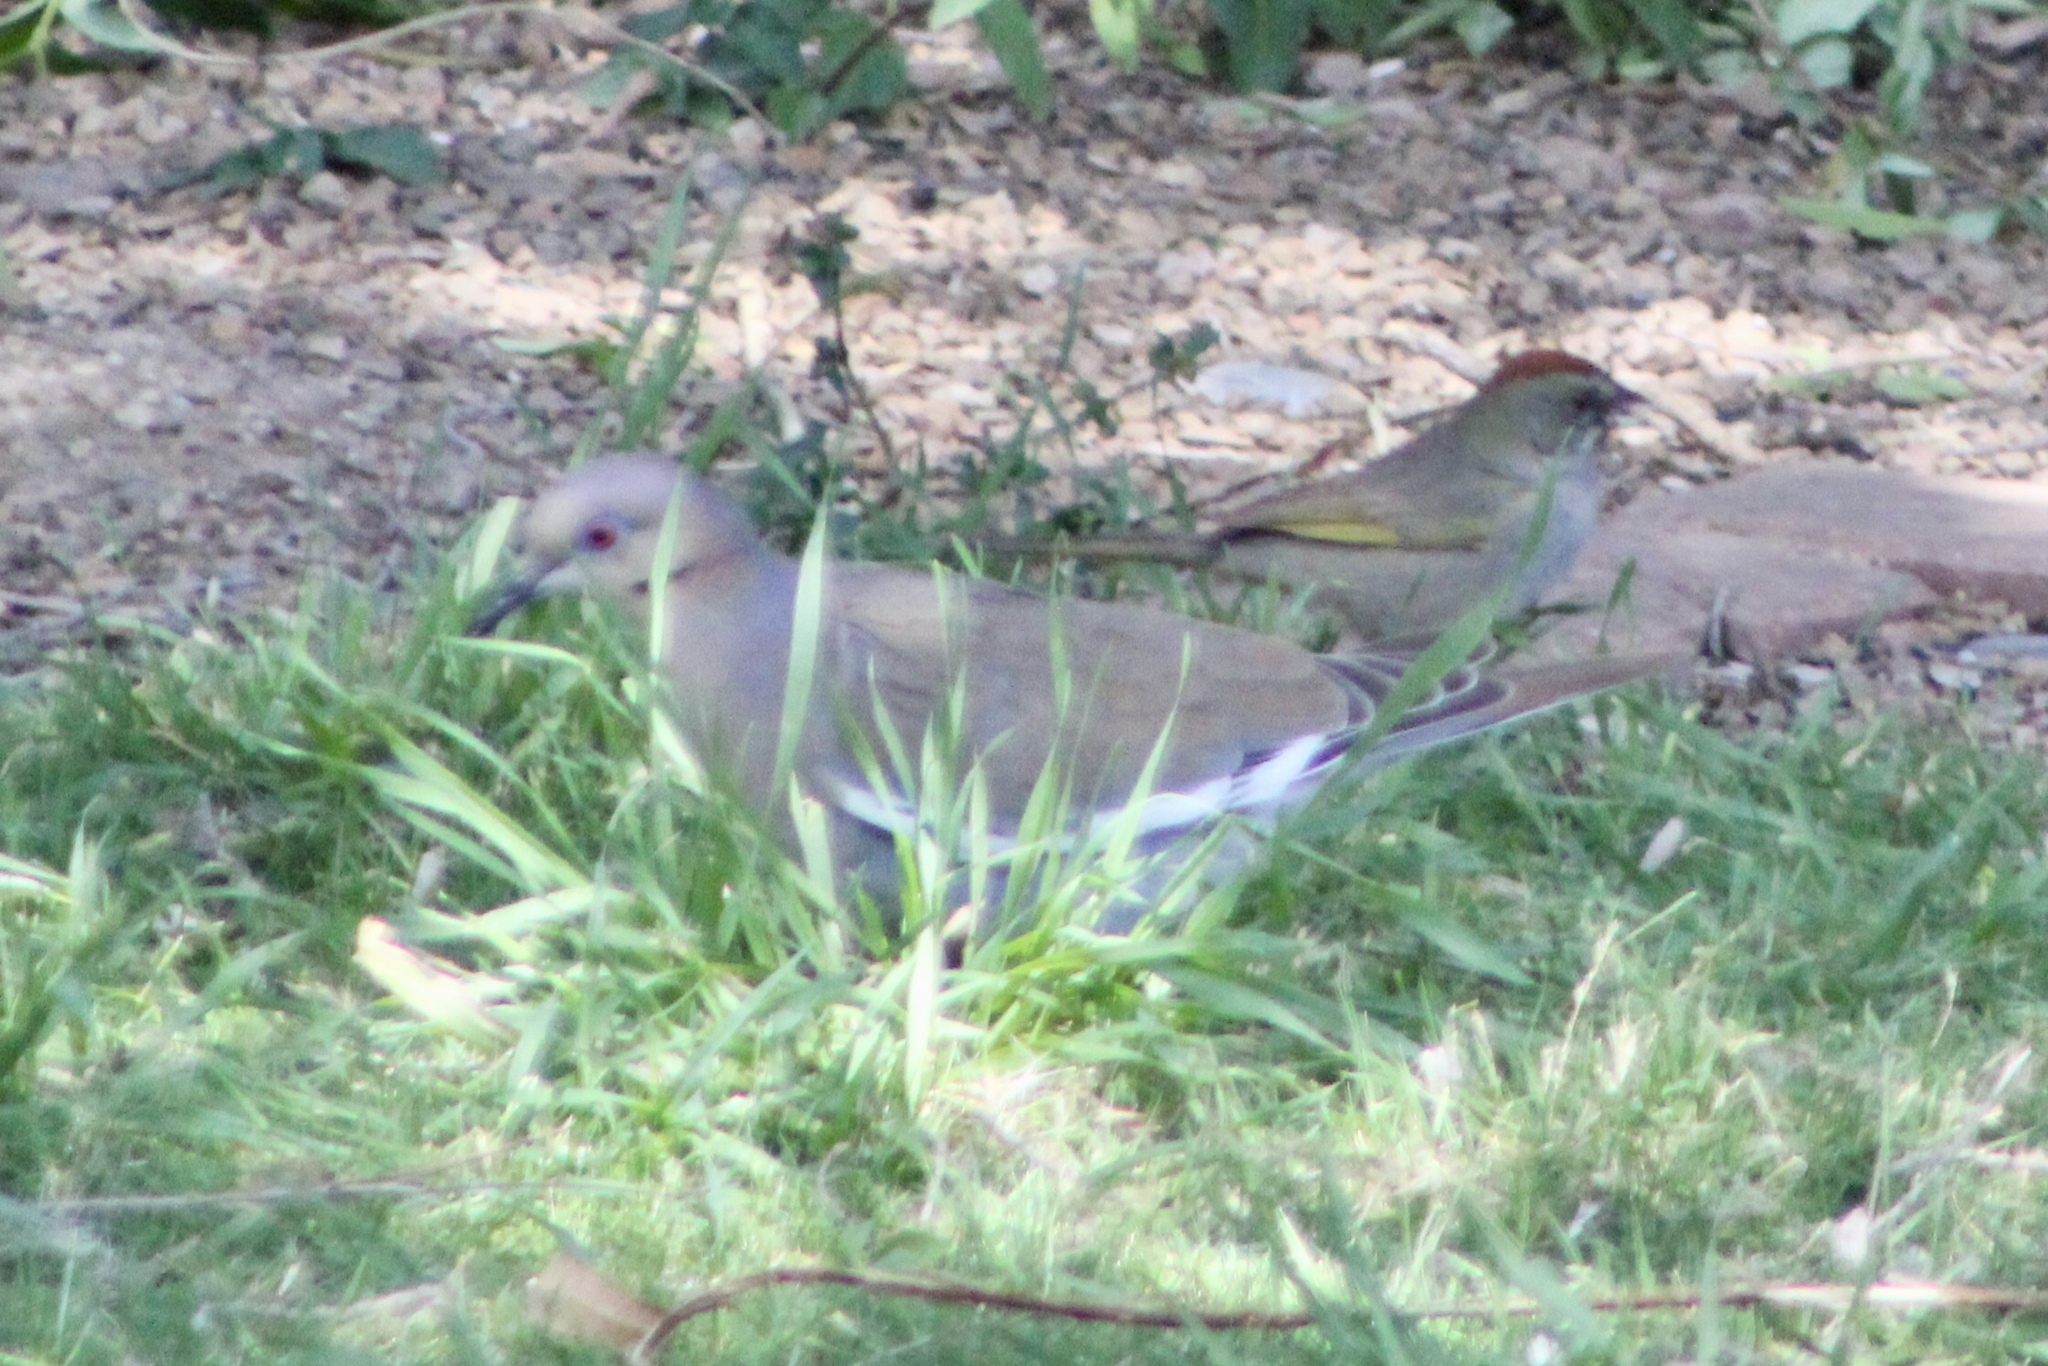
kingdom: Animalia
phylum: Chordata
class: Aves
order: Columbiformes
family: Columbidae
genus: Zenaida
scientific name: Zenaida asiatica
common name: White-winged dove
